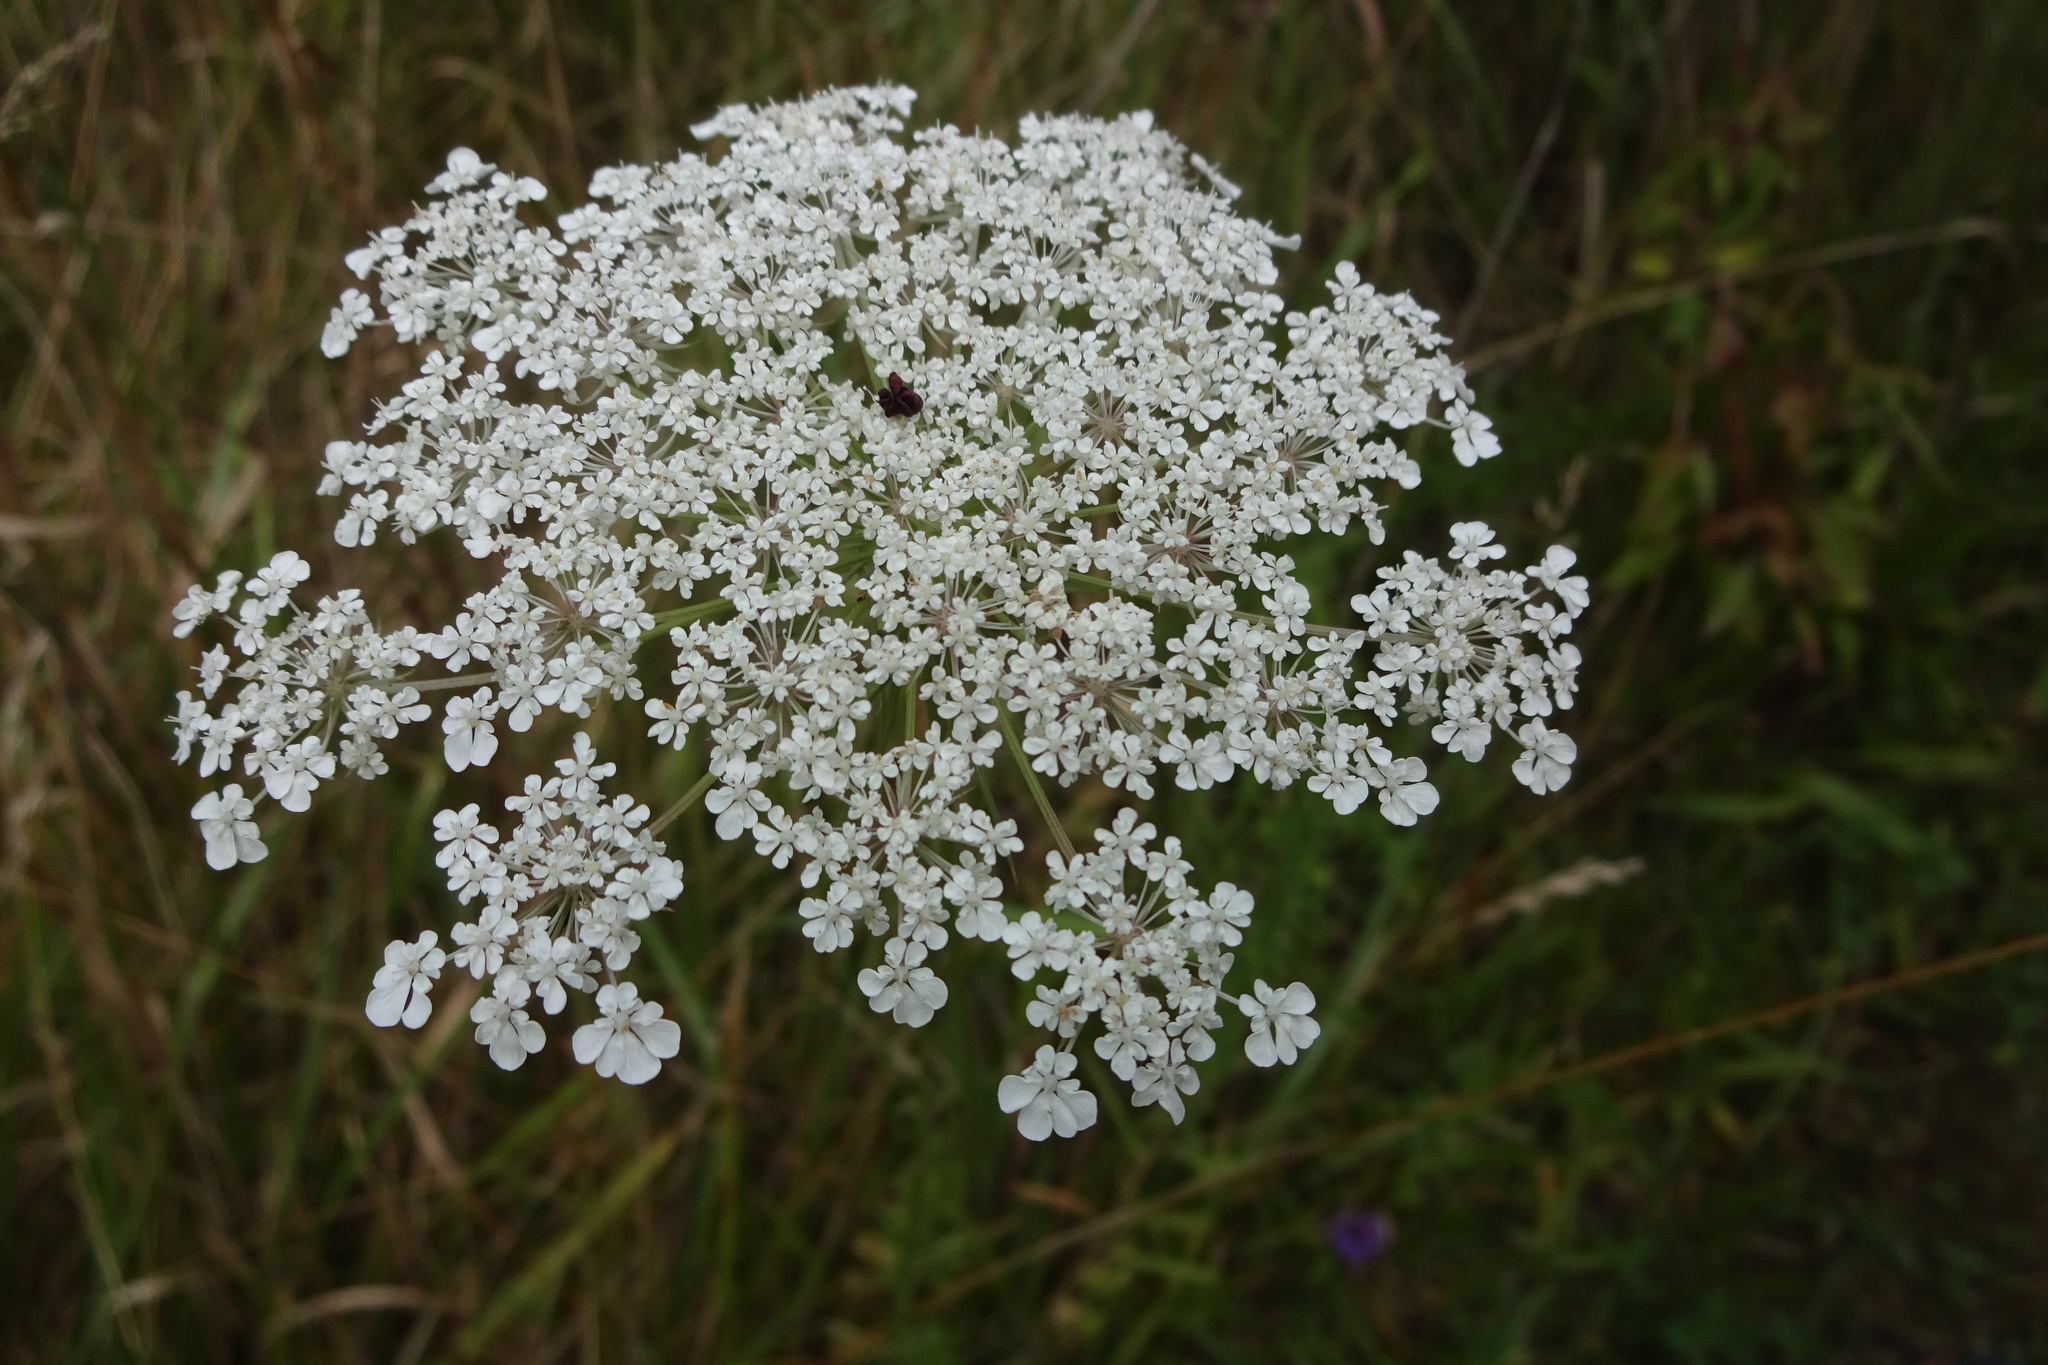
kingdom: Plantae
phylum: Tracheophyta
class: Magnoliopsida
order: Apiales
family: Apiaceae
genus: Daucus
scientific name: Daucus carota
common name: Wild carrot
